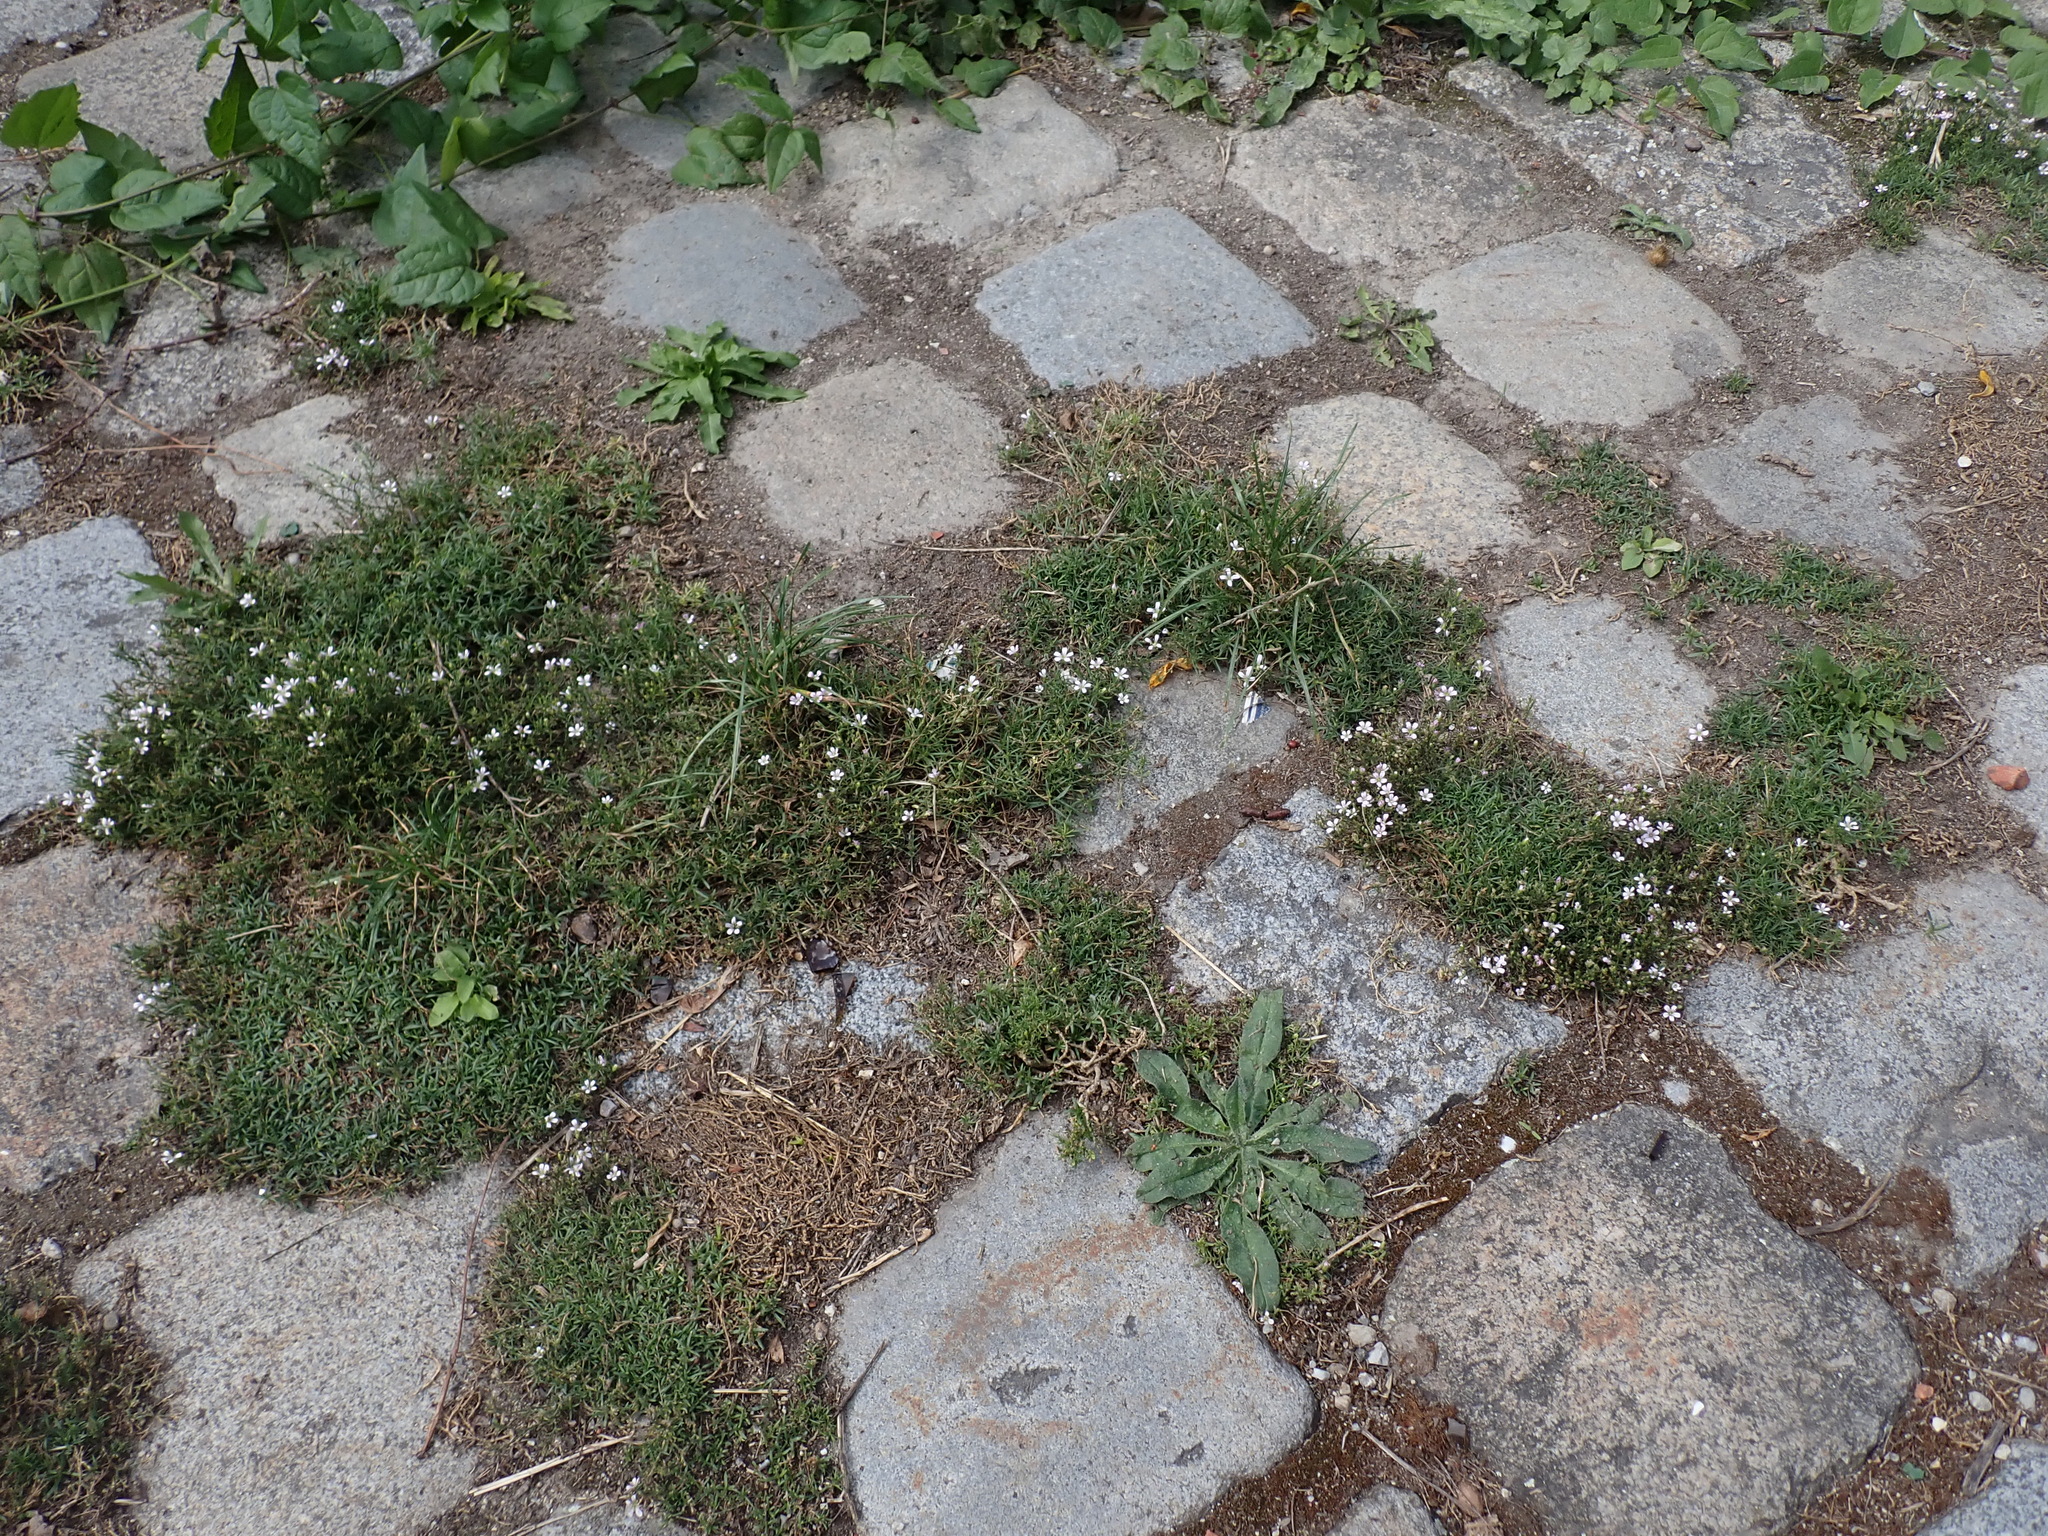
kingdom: Plantae
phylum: Tracheophyta
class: Magnoliopsida
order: Caryophyllales
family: Caryophyllaceae
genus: Petrorhagia
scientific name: Petrorhagia saxifraga
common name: Tunicflower
